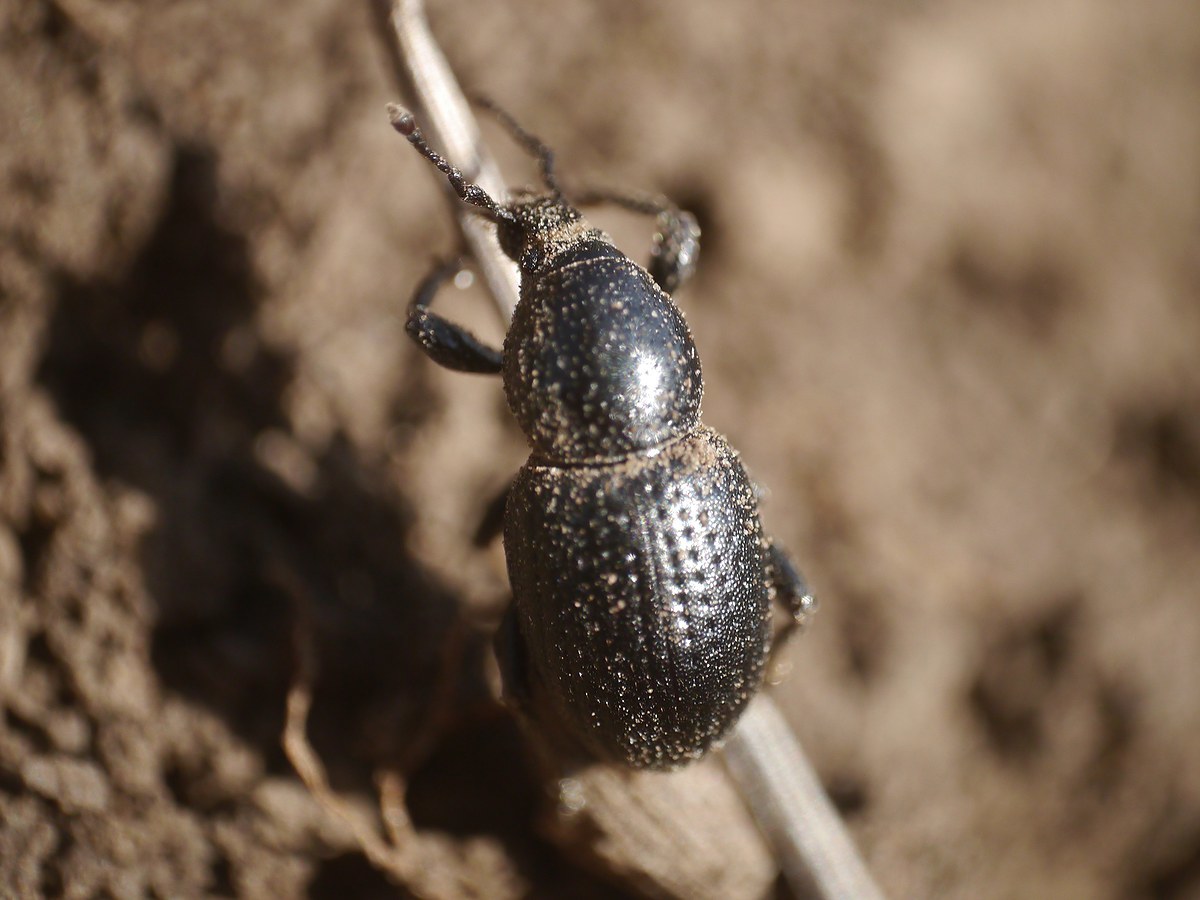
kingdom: Animalia
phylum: Arthropoda
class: Insecta
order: Coleoptera
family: Curculionidae
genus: Psallidium
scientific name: Psallidium maxillosum
